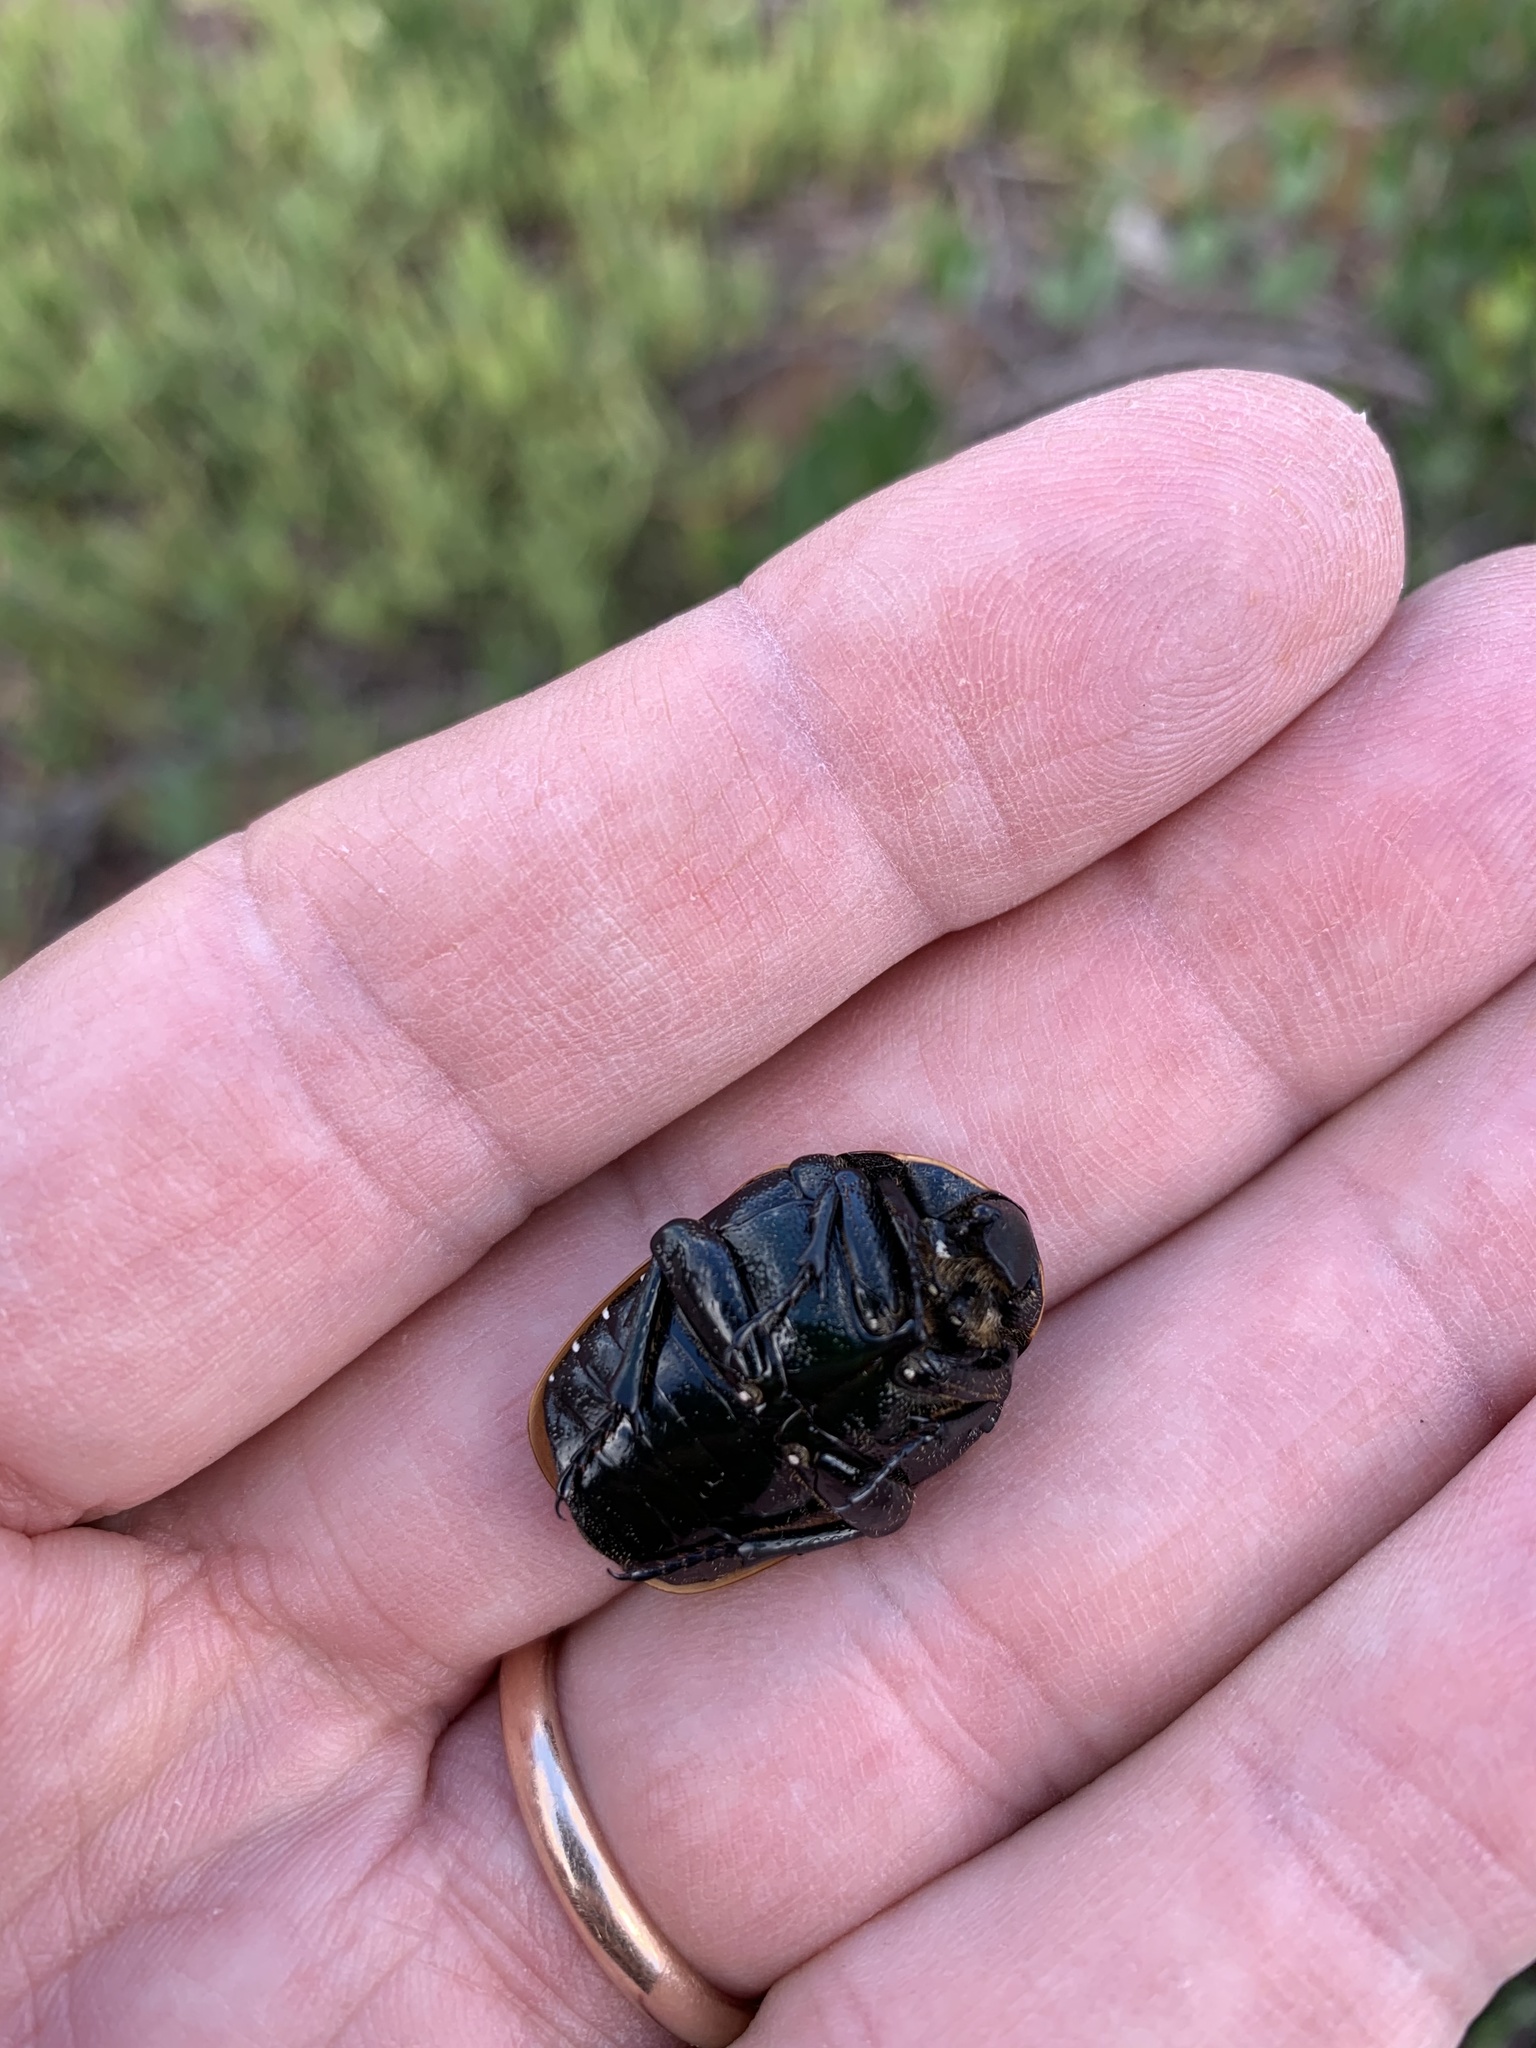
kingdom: Animalia
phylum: Arthropoda
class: Insecta
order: Coleoptera
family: Scarabaeidae
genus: Dischista
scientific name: Dischista rufa
